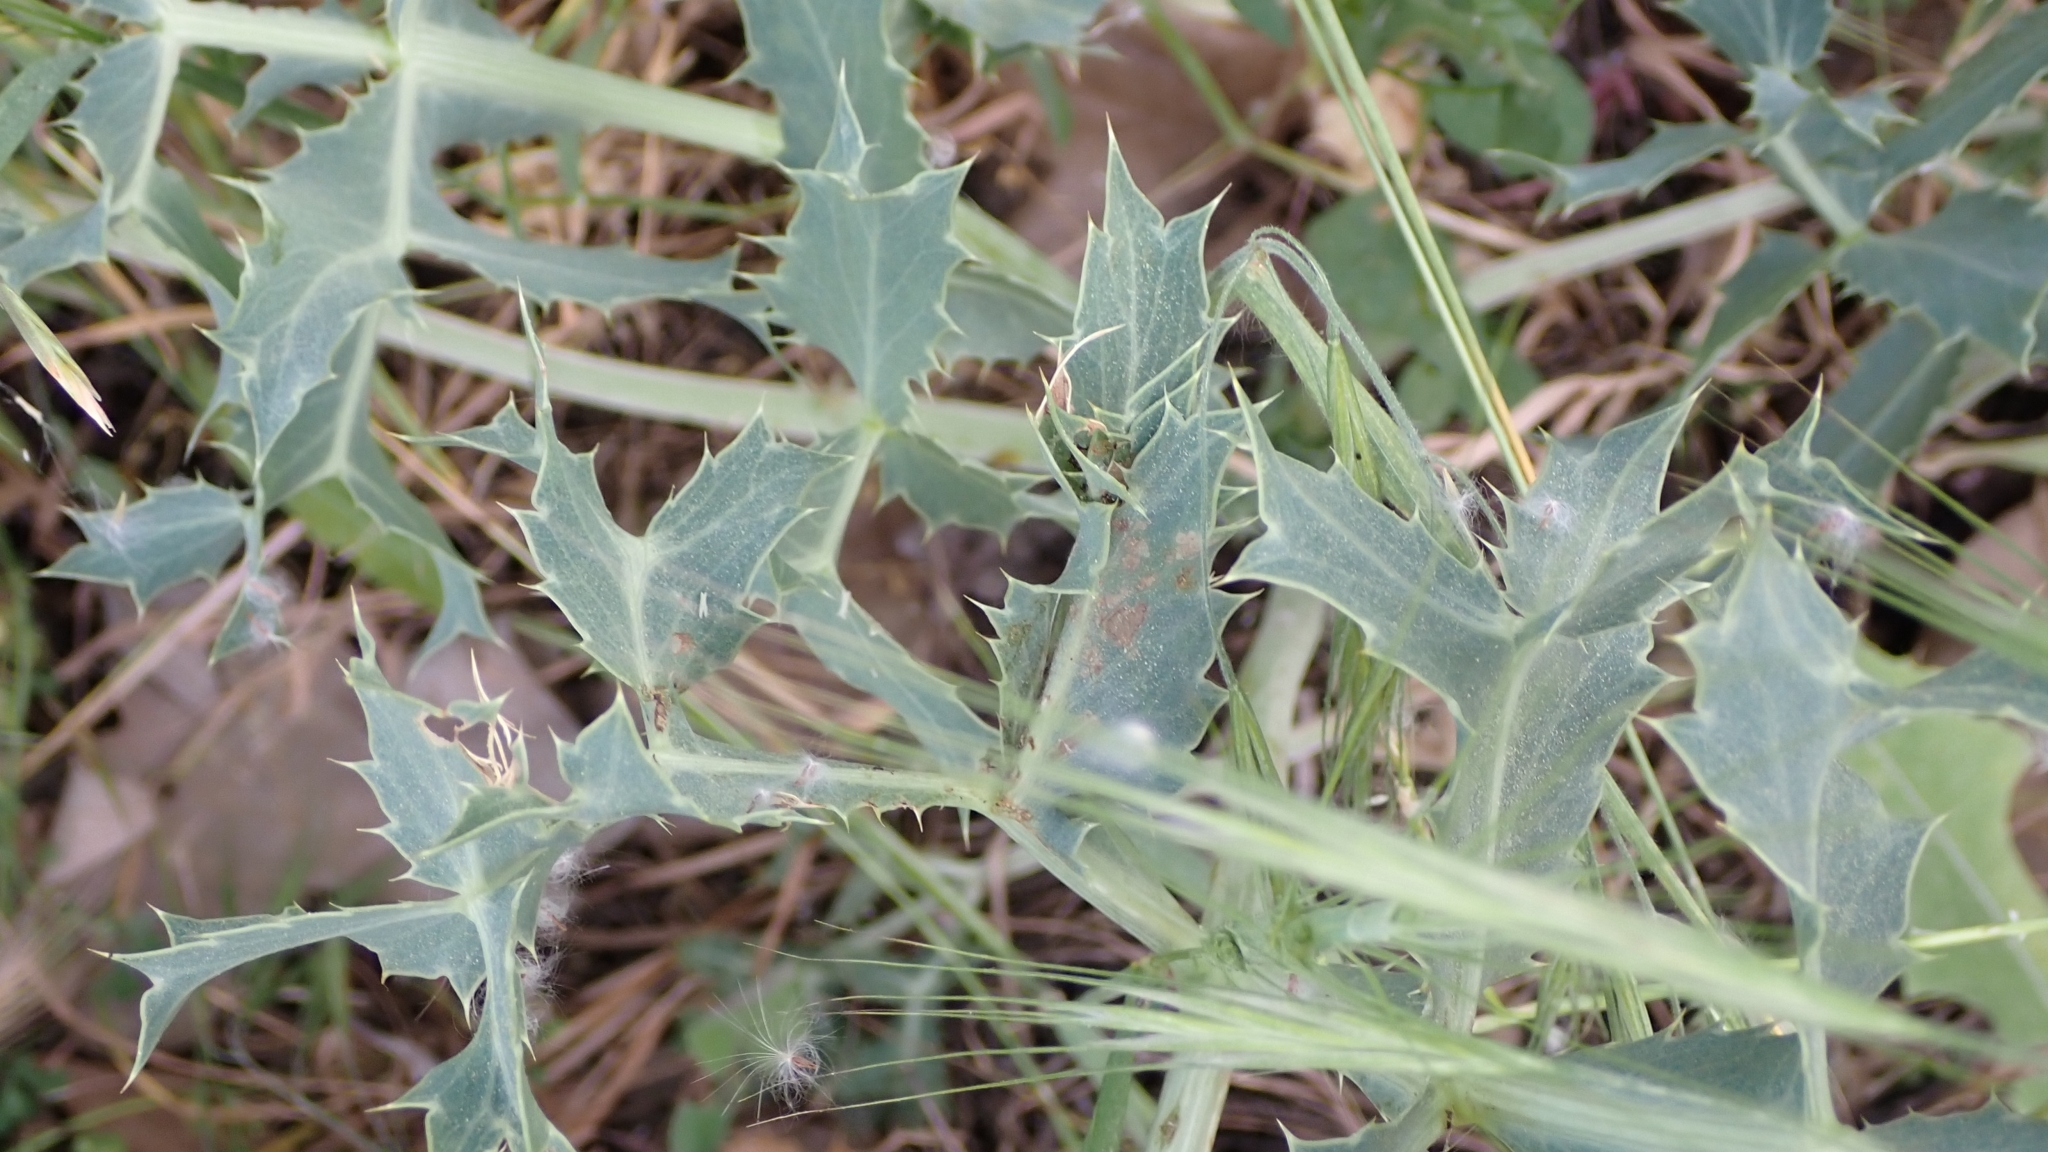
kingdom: Plantae
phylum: Tracheophyta
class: Magnoliopsida
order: Apiales
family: Apiaceae
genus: Eryngium
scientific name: Eryngium campestre
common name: Field eryngo
